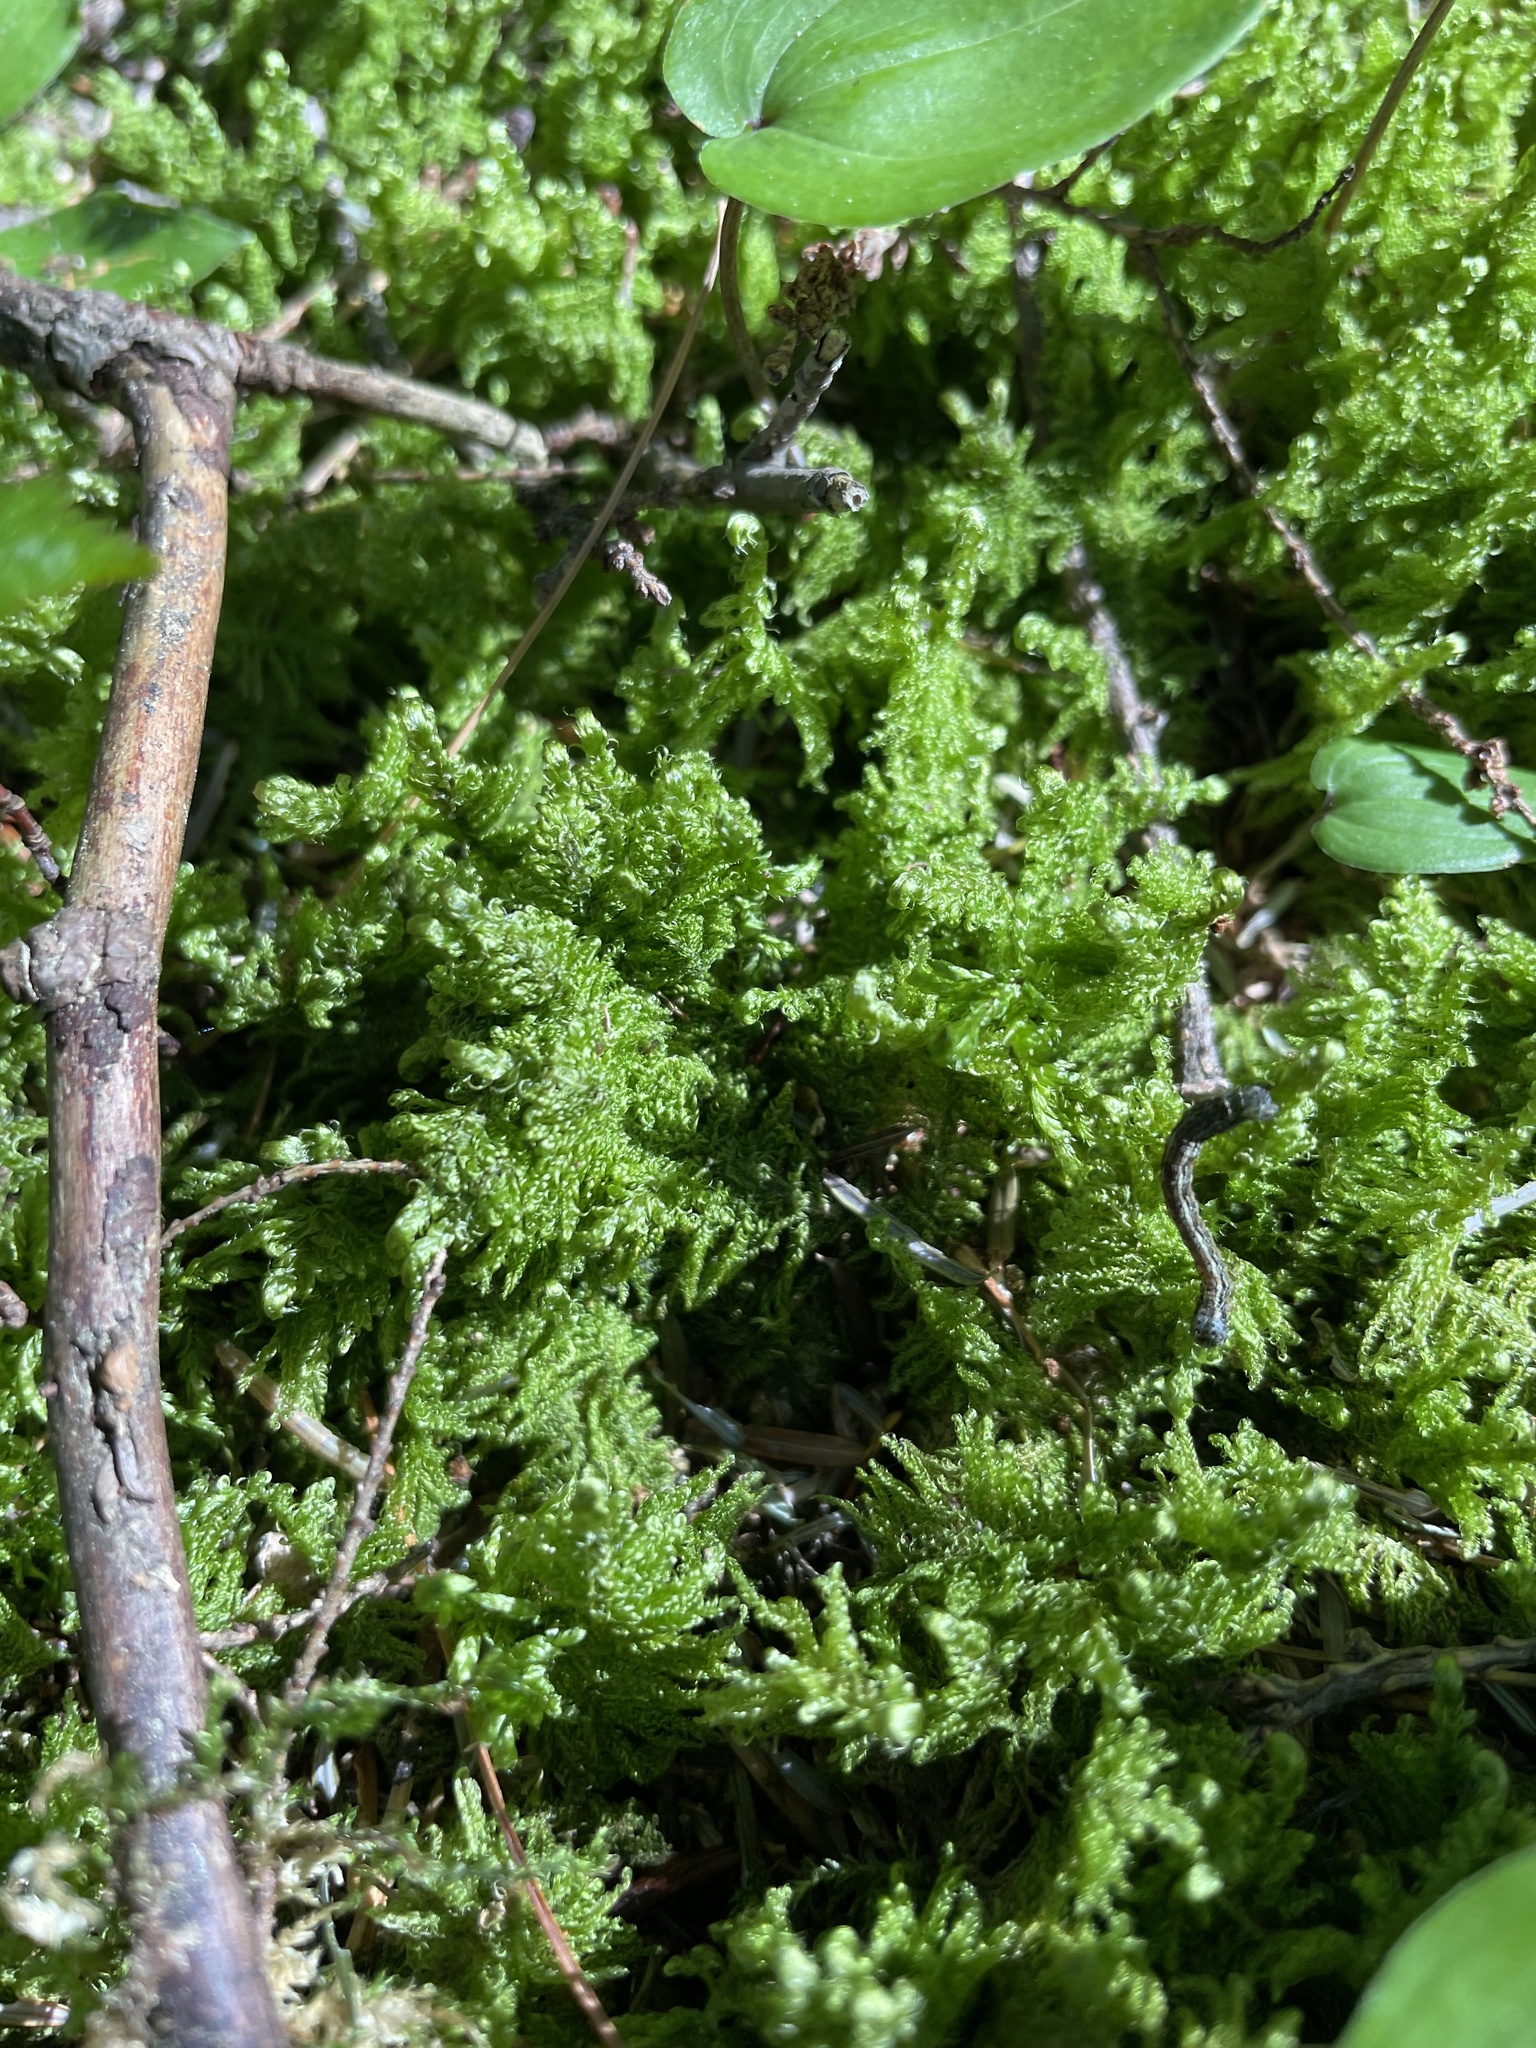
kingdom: Plantae
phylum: Bryophyta
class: Bryopsida
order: Hypnales
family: Pylaisiaceae
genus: Ptilium
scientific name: Ptilium crista-castrensis
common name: Knight's plume moss
